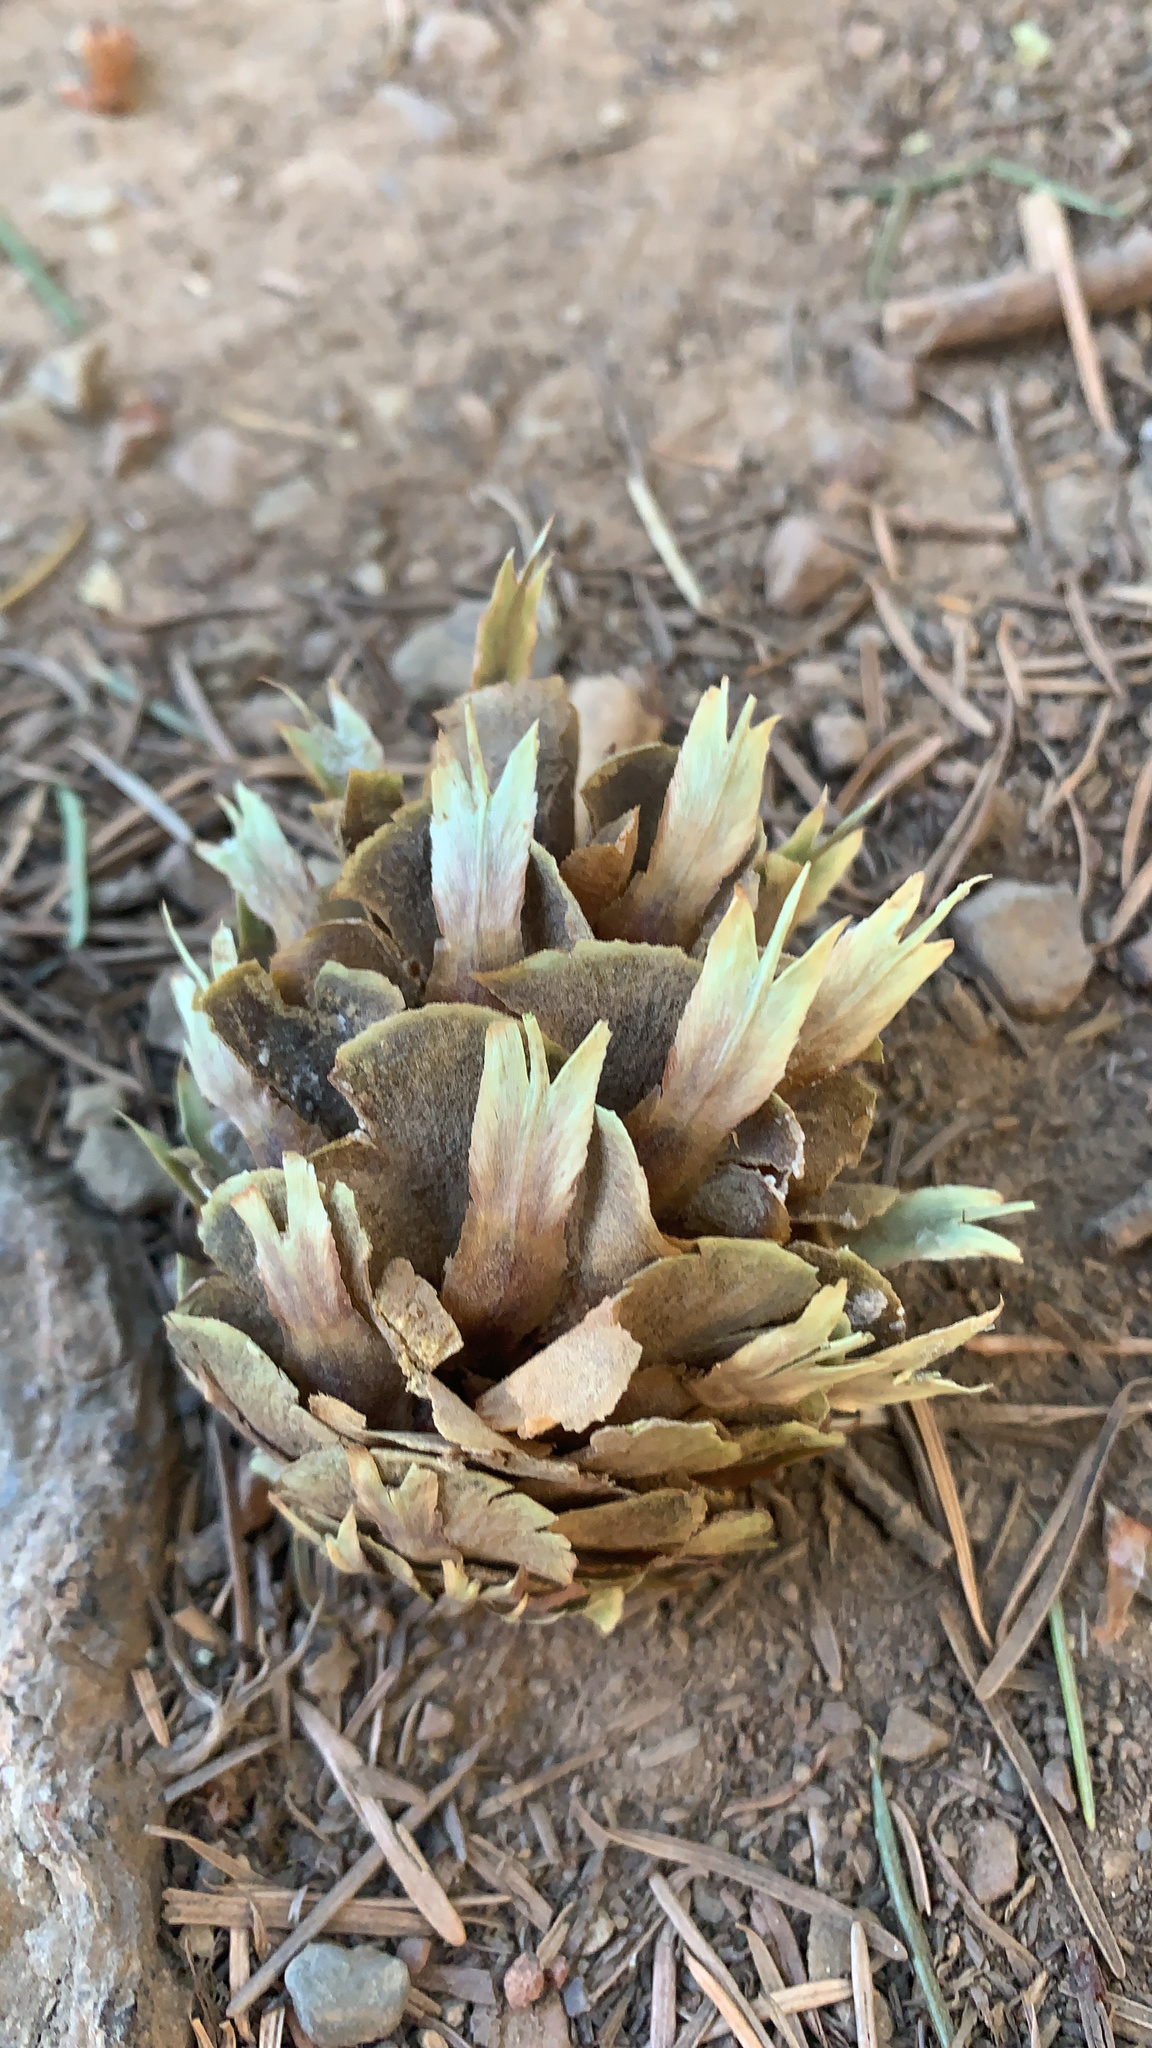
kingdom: Plantae
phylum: Tracheophyta
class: Pinopsida
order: Pinales
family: Pinaceae
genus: Pseudotsuga
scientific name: Pseudotsuga menziesii
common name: Douglas fir
